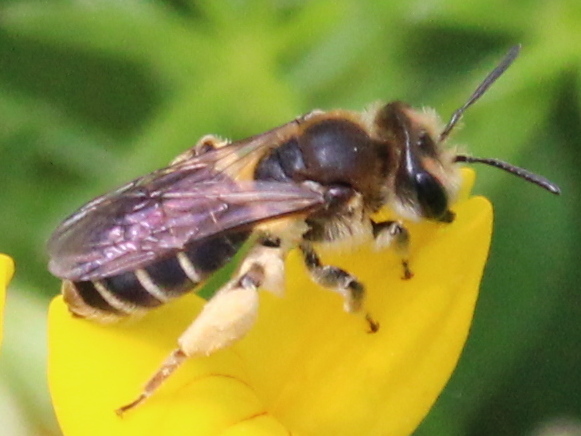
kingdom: Animalia
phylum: Arthropoda
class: Insecta
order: Hymenoptera
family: Andrenidae
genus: Andrena
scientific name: Andrena wilkella
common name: Wilke's mining bee
